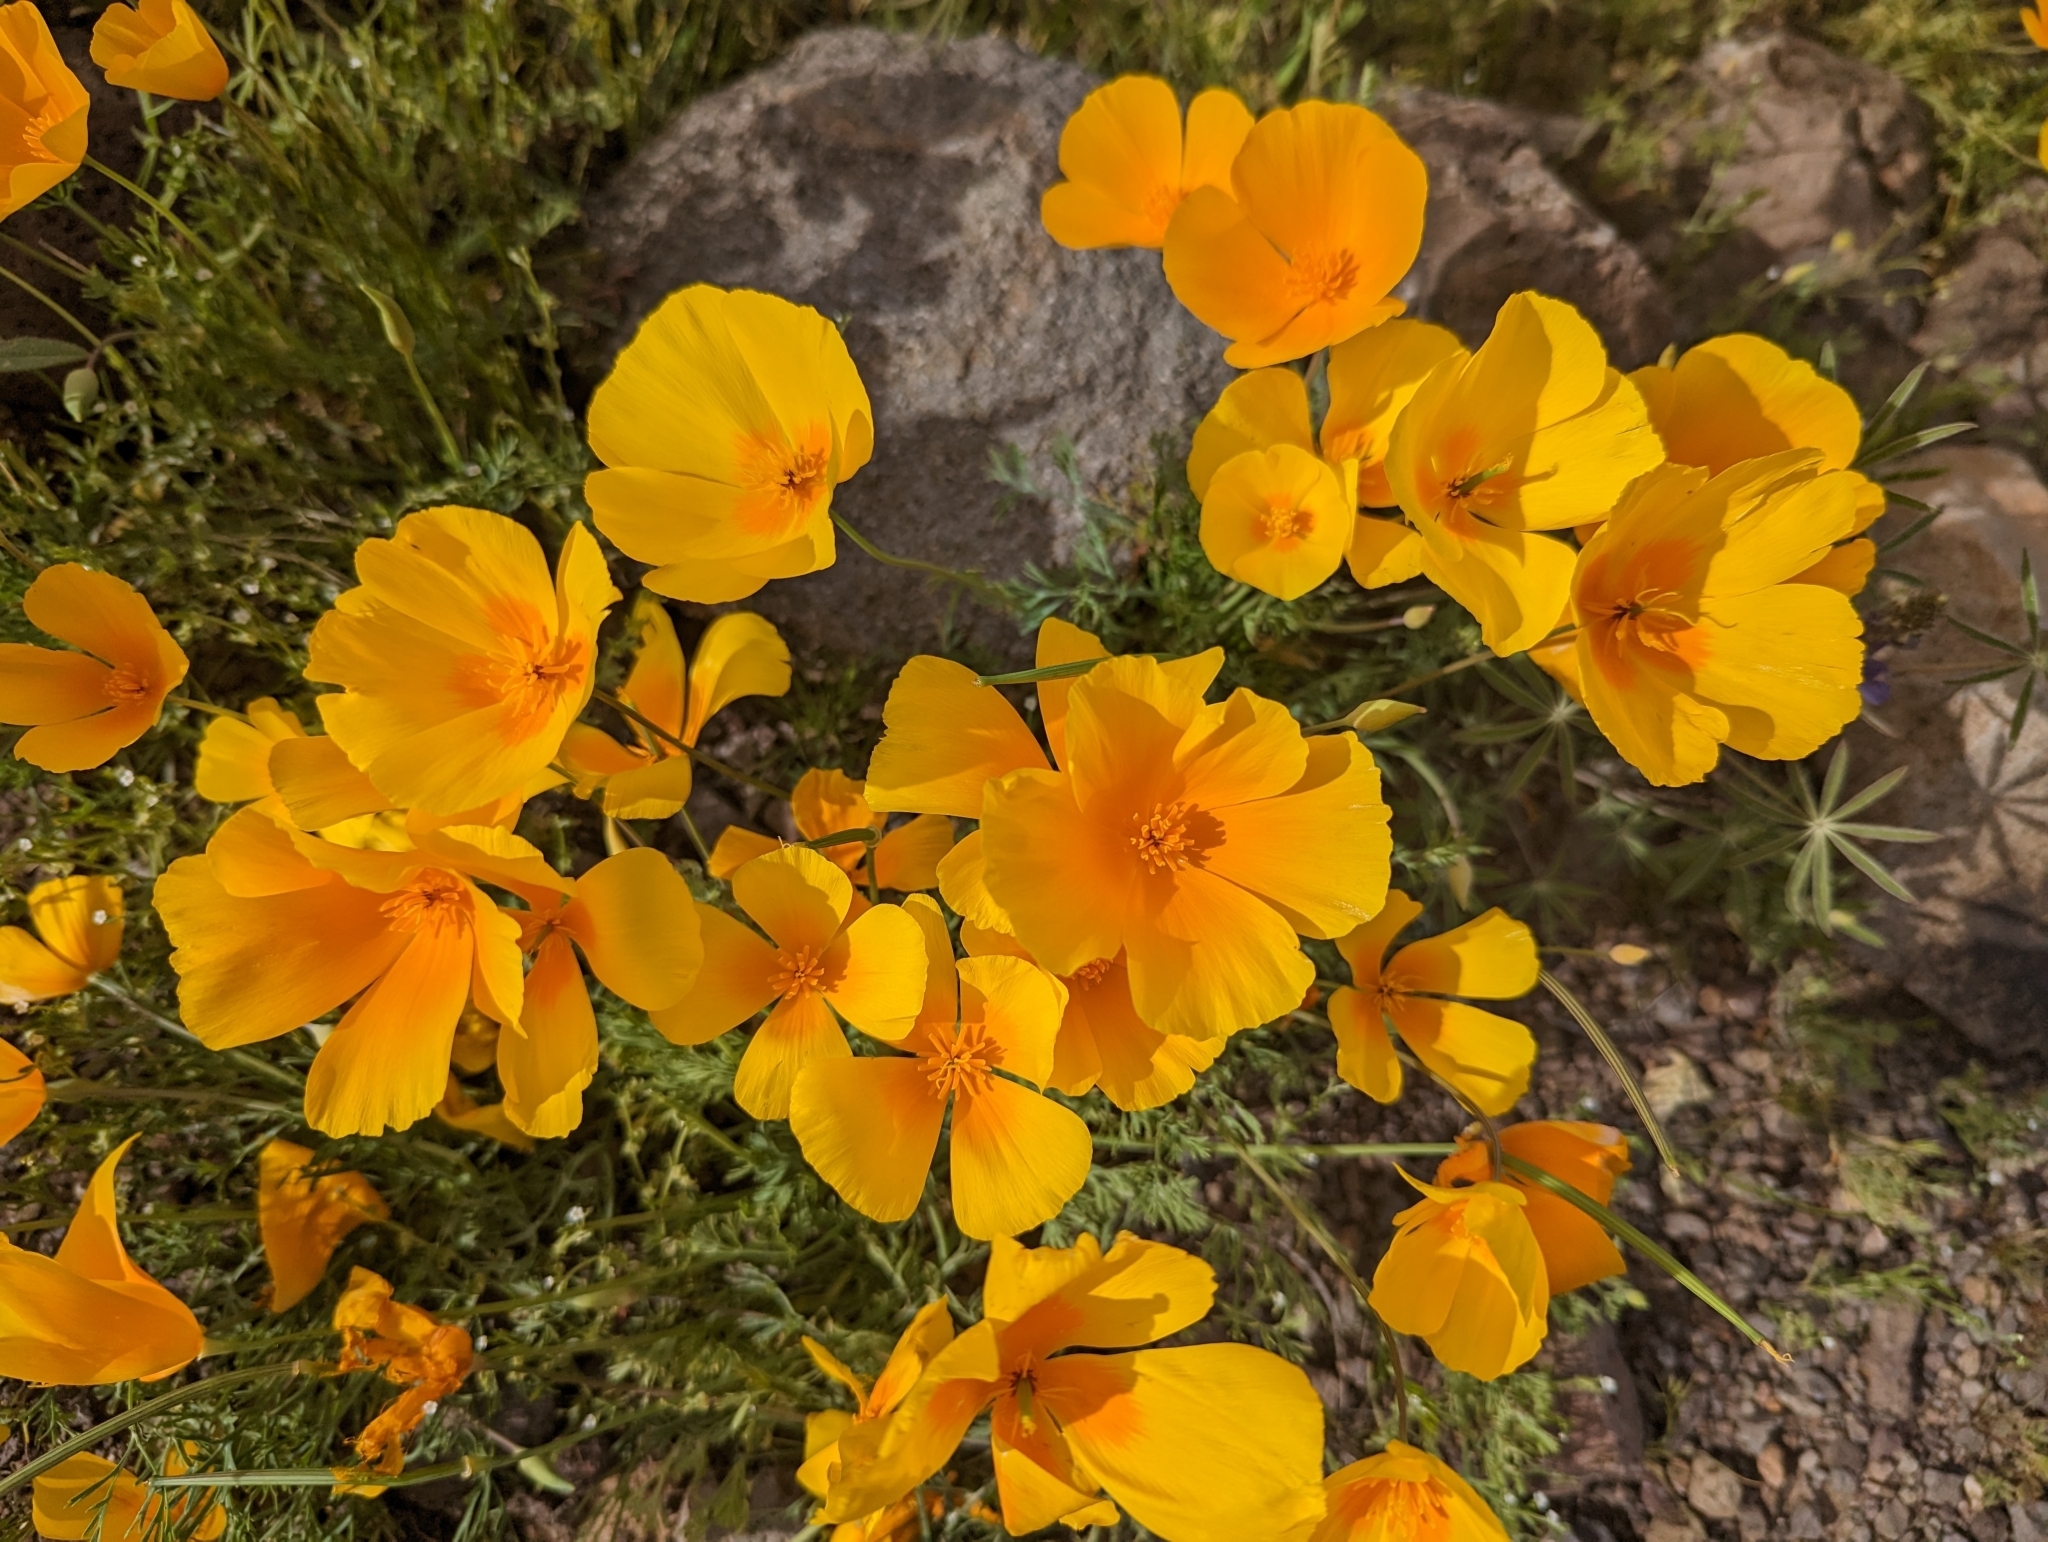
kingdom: Plantae
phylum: Tracheophyta
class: Magnoliopsida
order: Ranunculales
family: Papaveraceae
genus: Eschscholzia
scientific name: Eschscholzia californica
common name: California poppy
